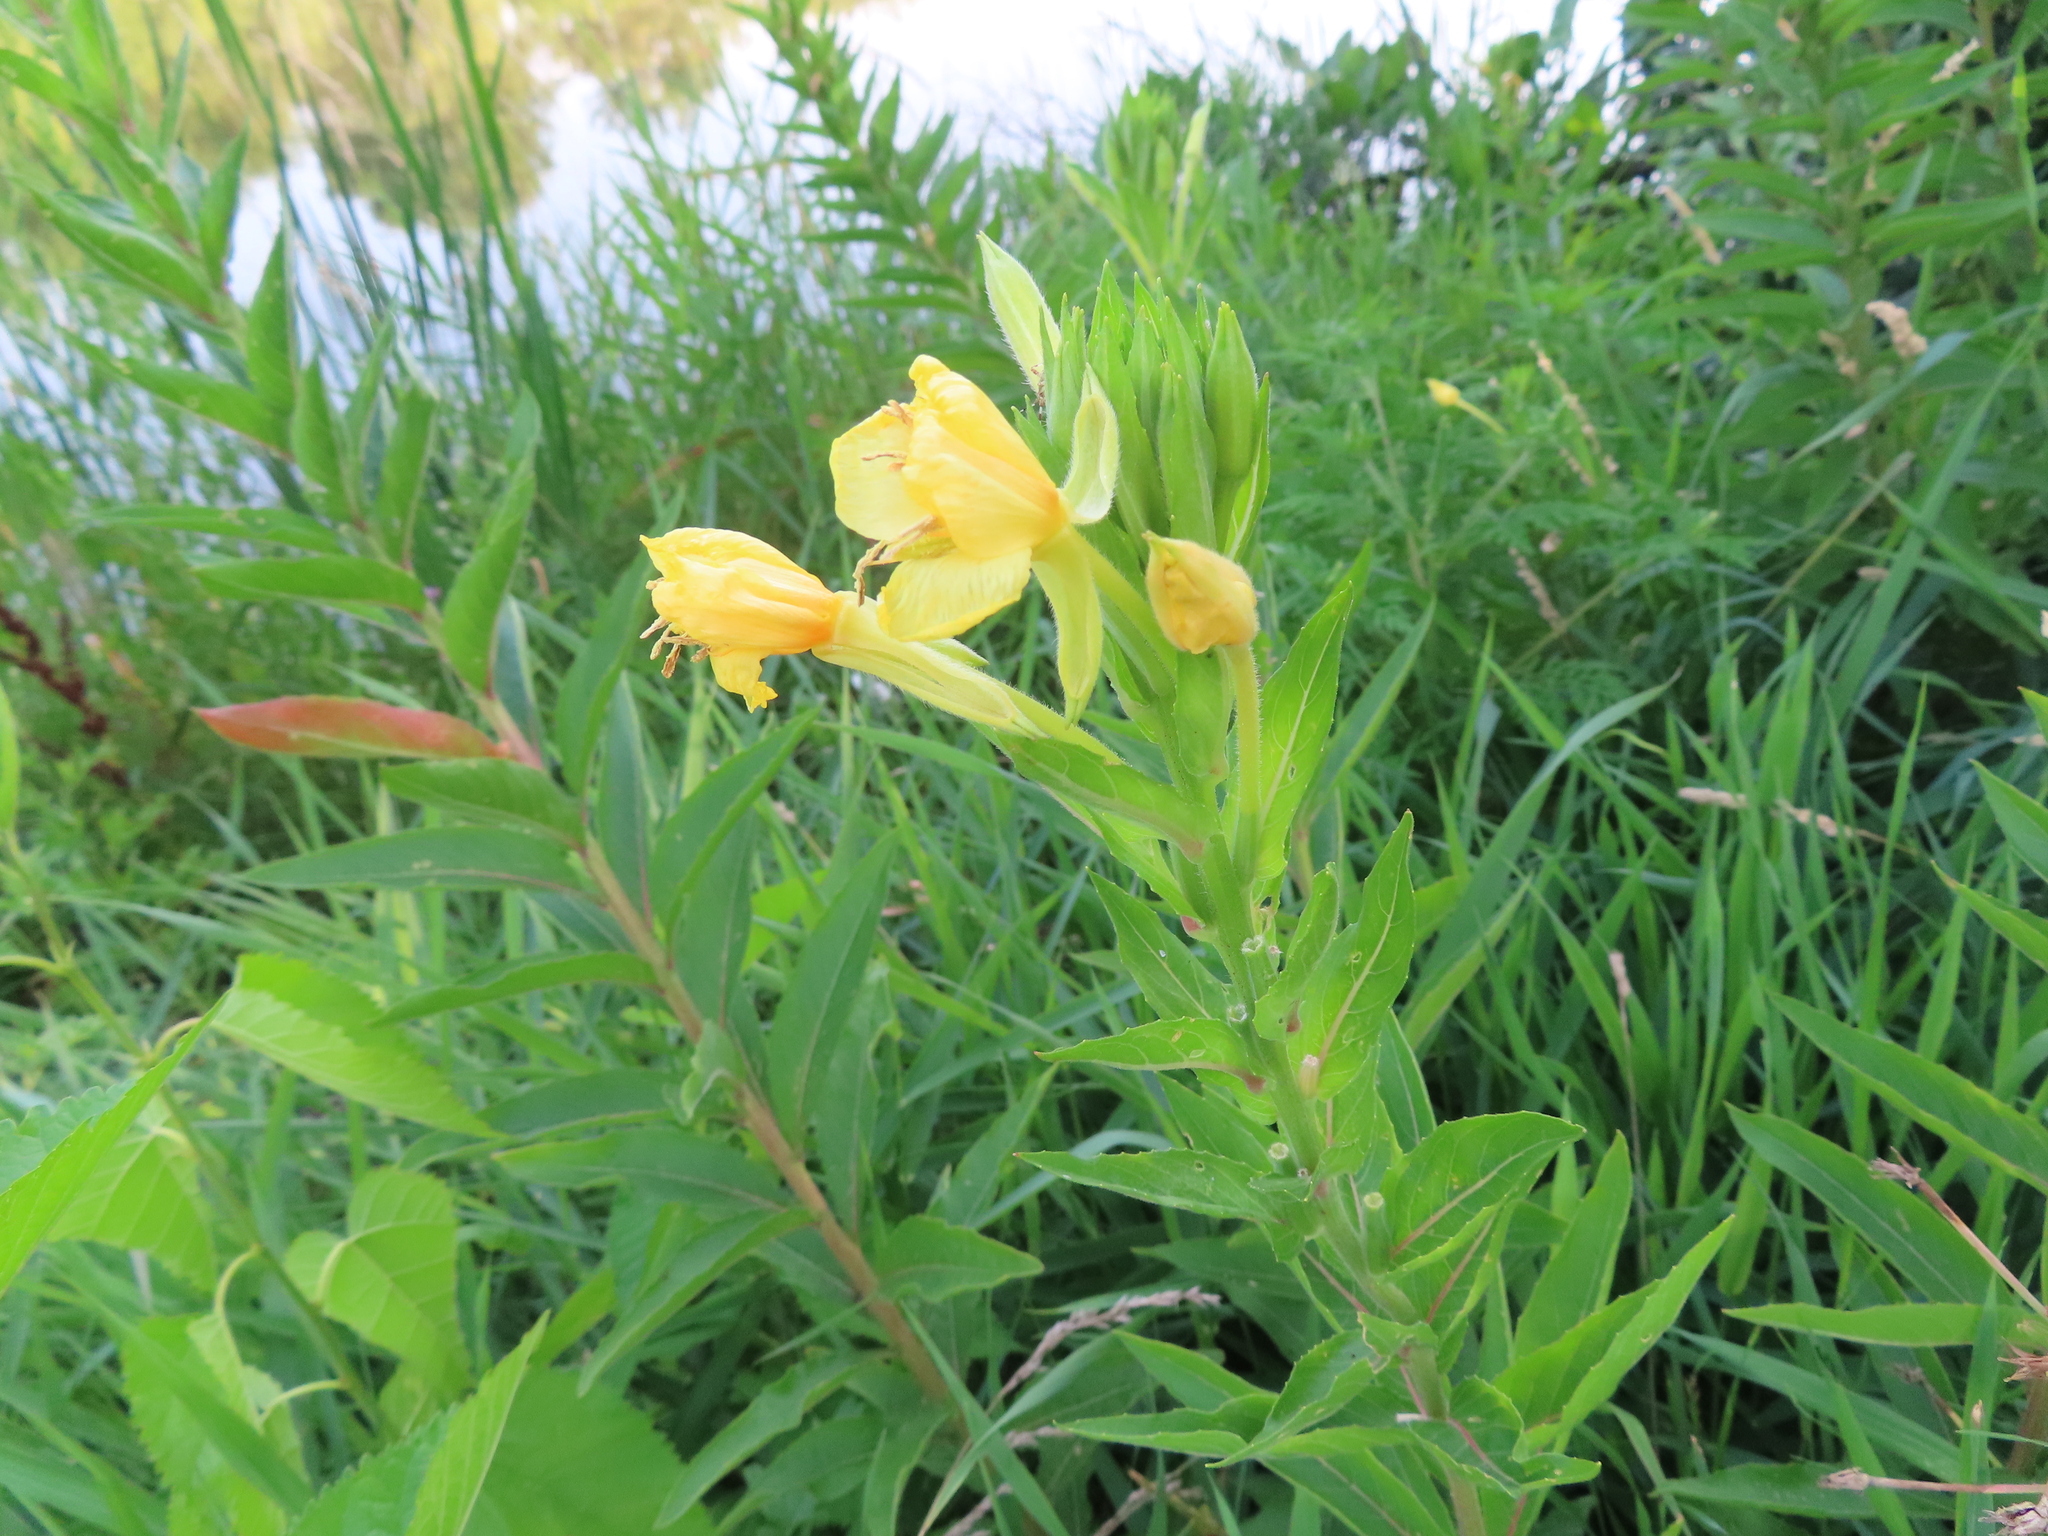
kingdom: Plantae
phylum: Tracheophyta
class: Magnoliopsida
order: Myrtales
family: Onagraceae
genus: Oenothera
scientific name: Oenothera biennis
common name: Common evening-primrose
